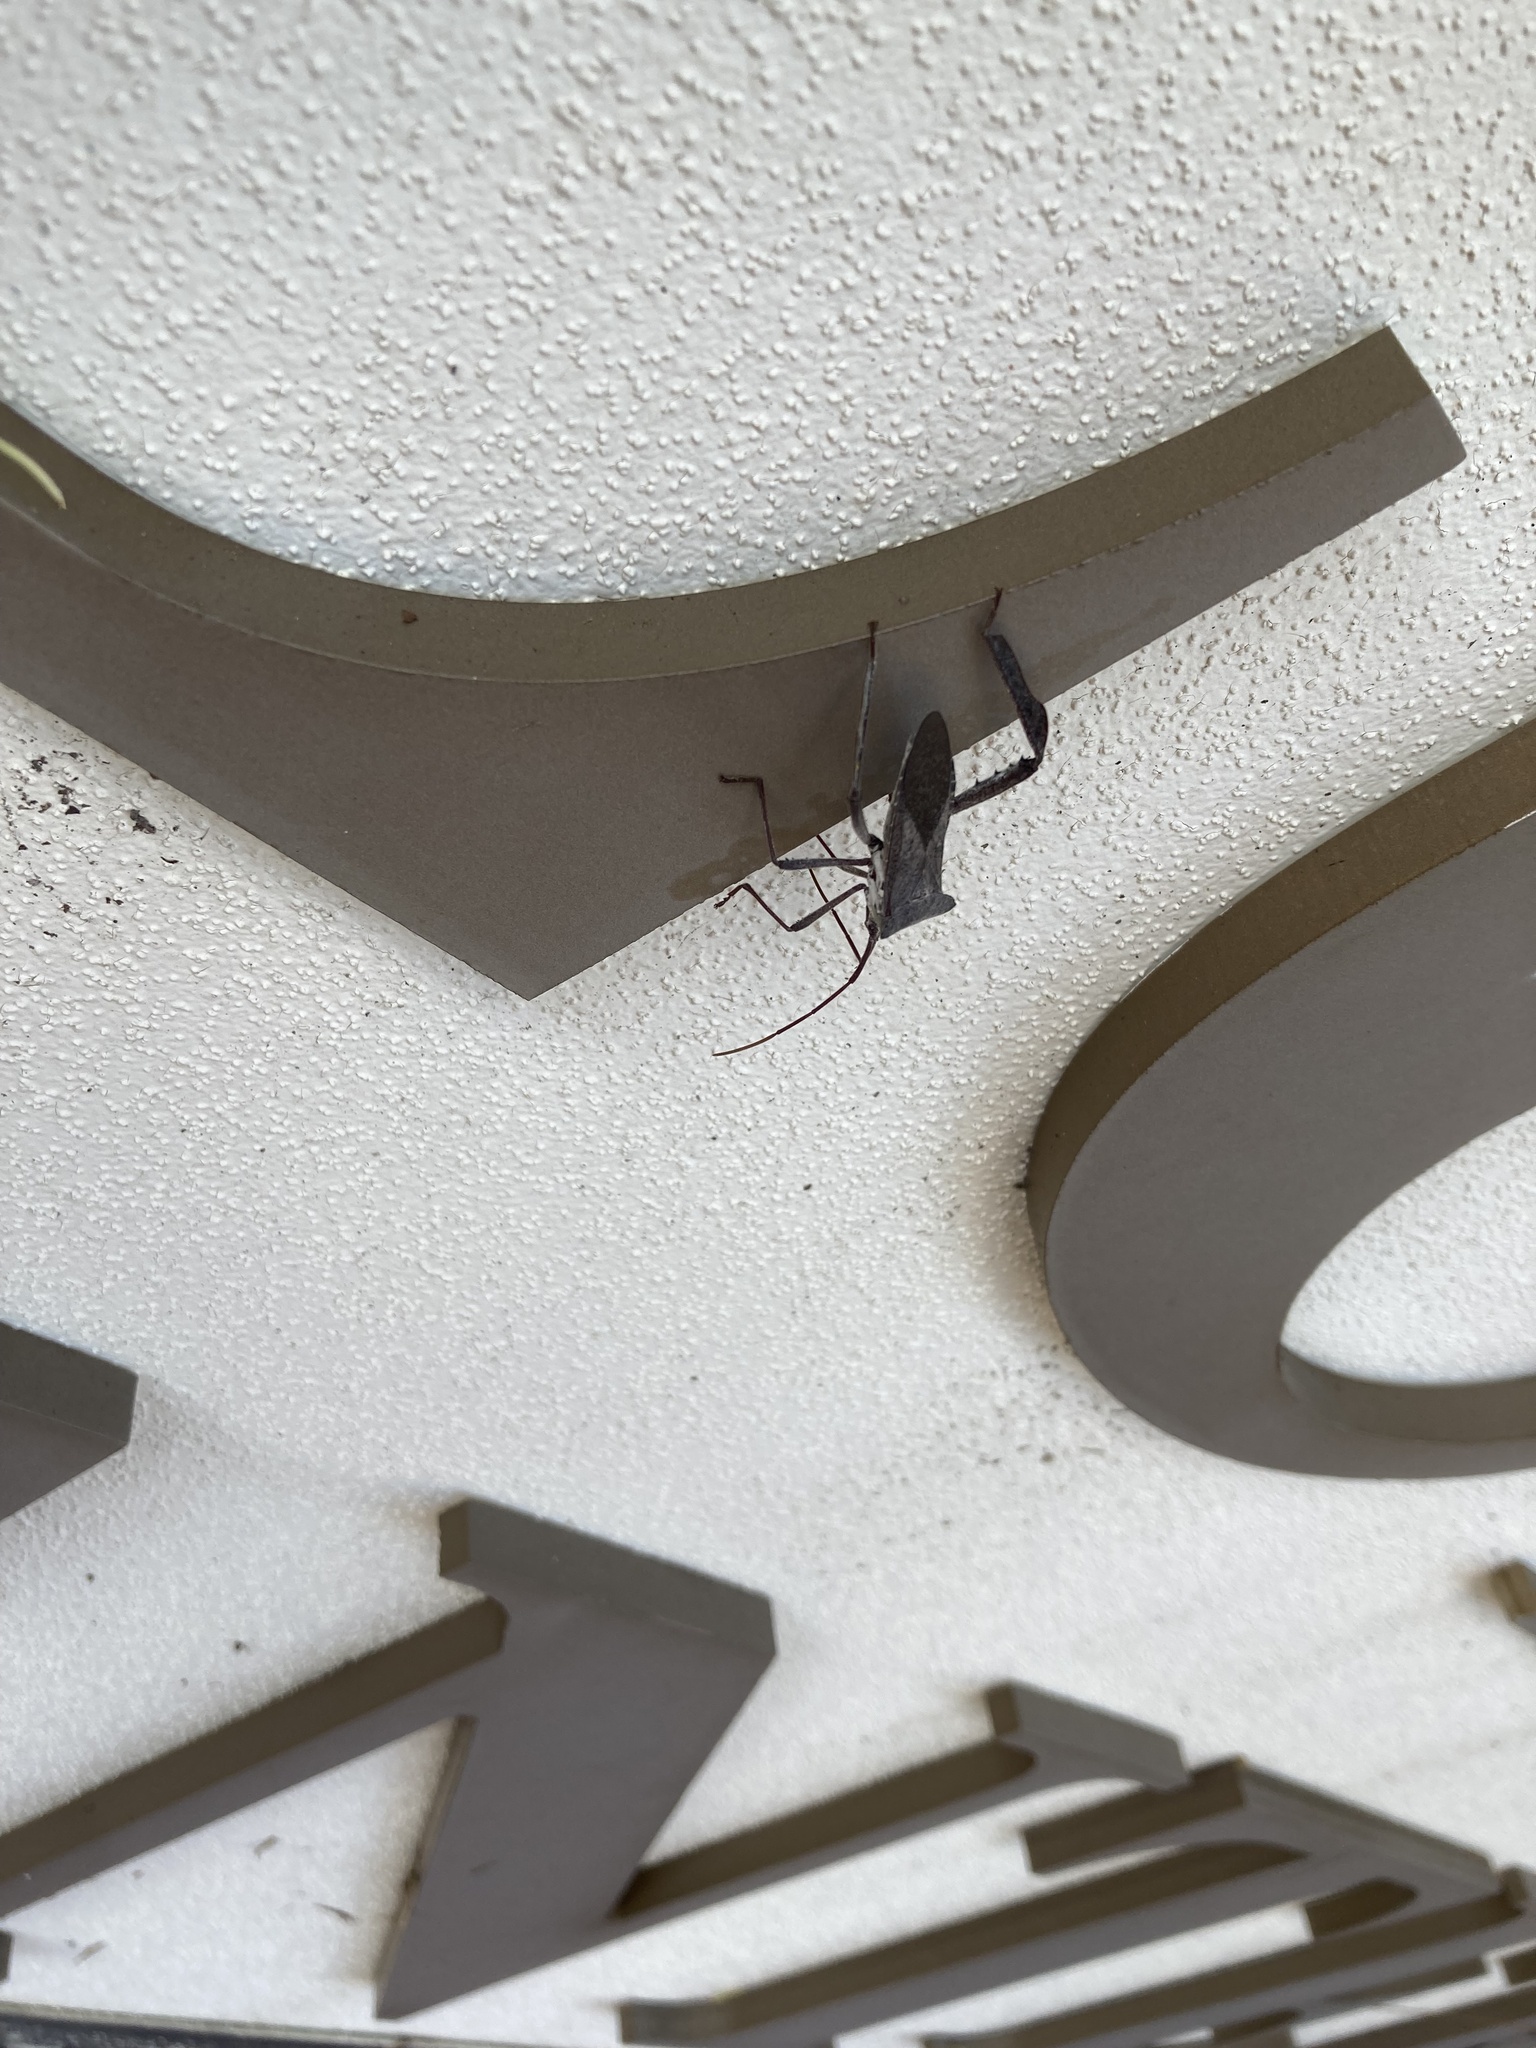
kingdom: Animalia
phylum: Arthropoda
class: Insecta
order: Hemiptera
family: Coreidae
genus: Acanthocephala
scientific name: Acanthocephala declivis
